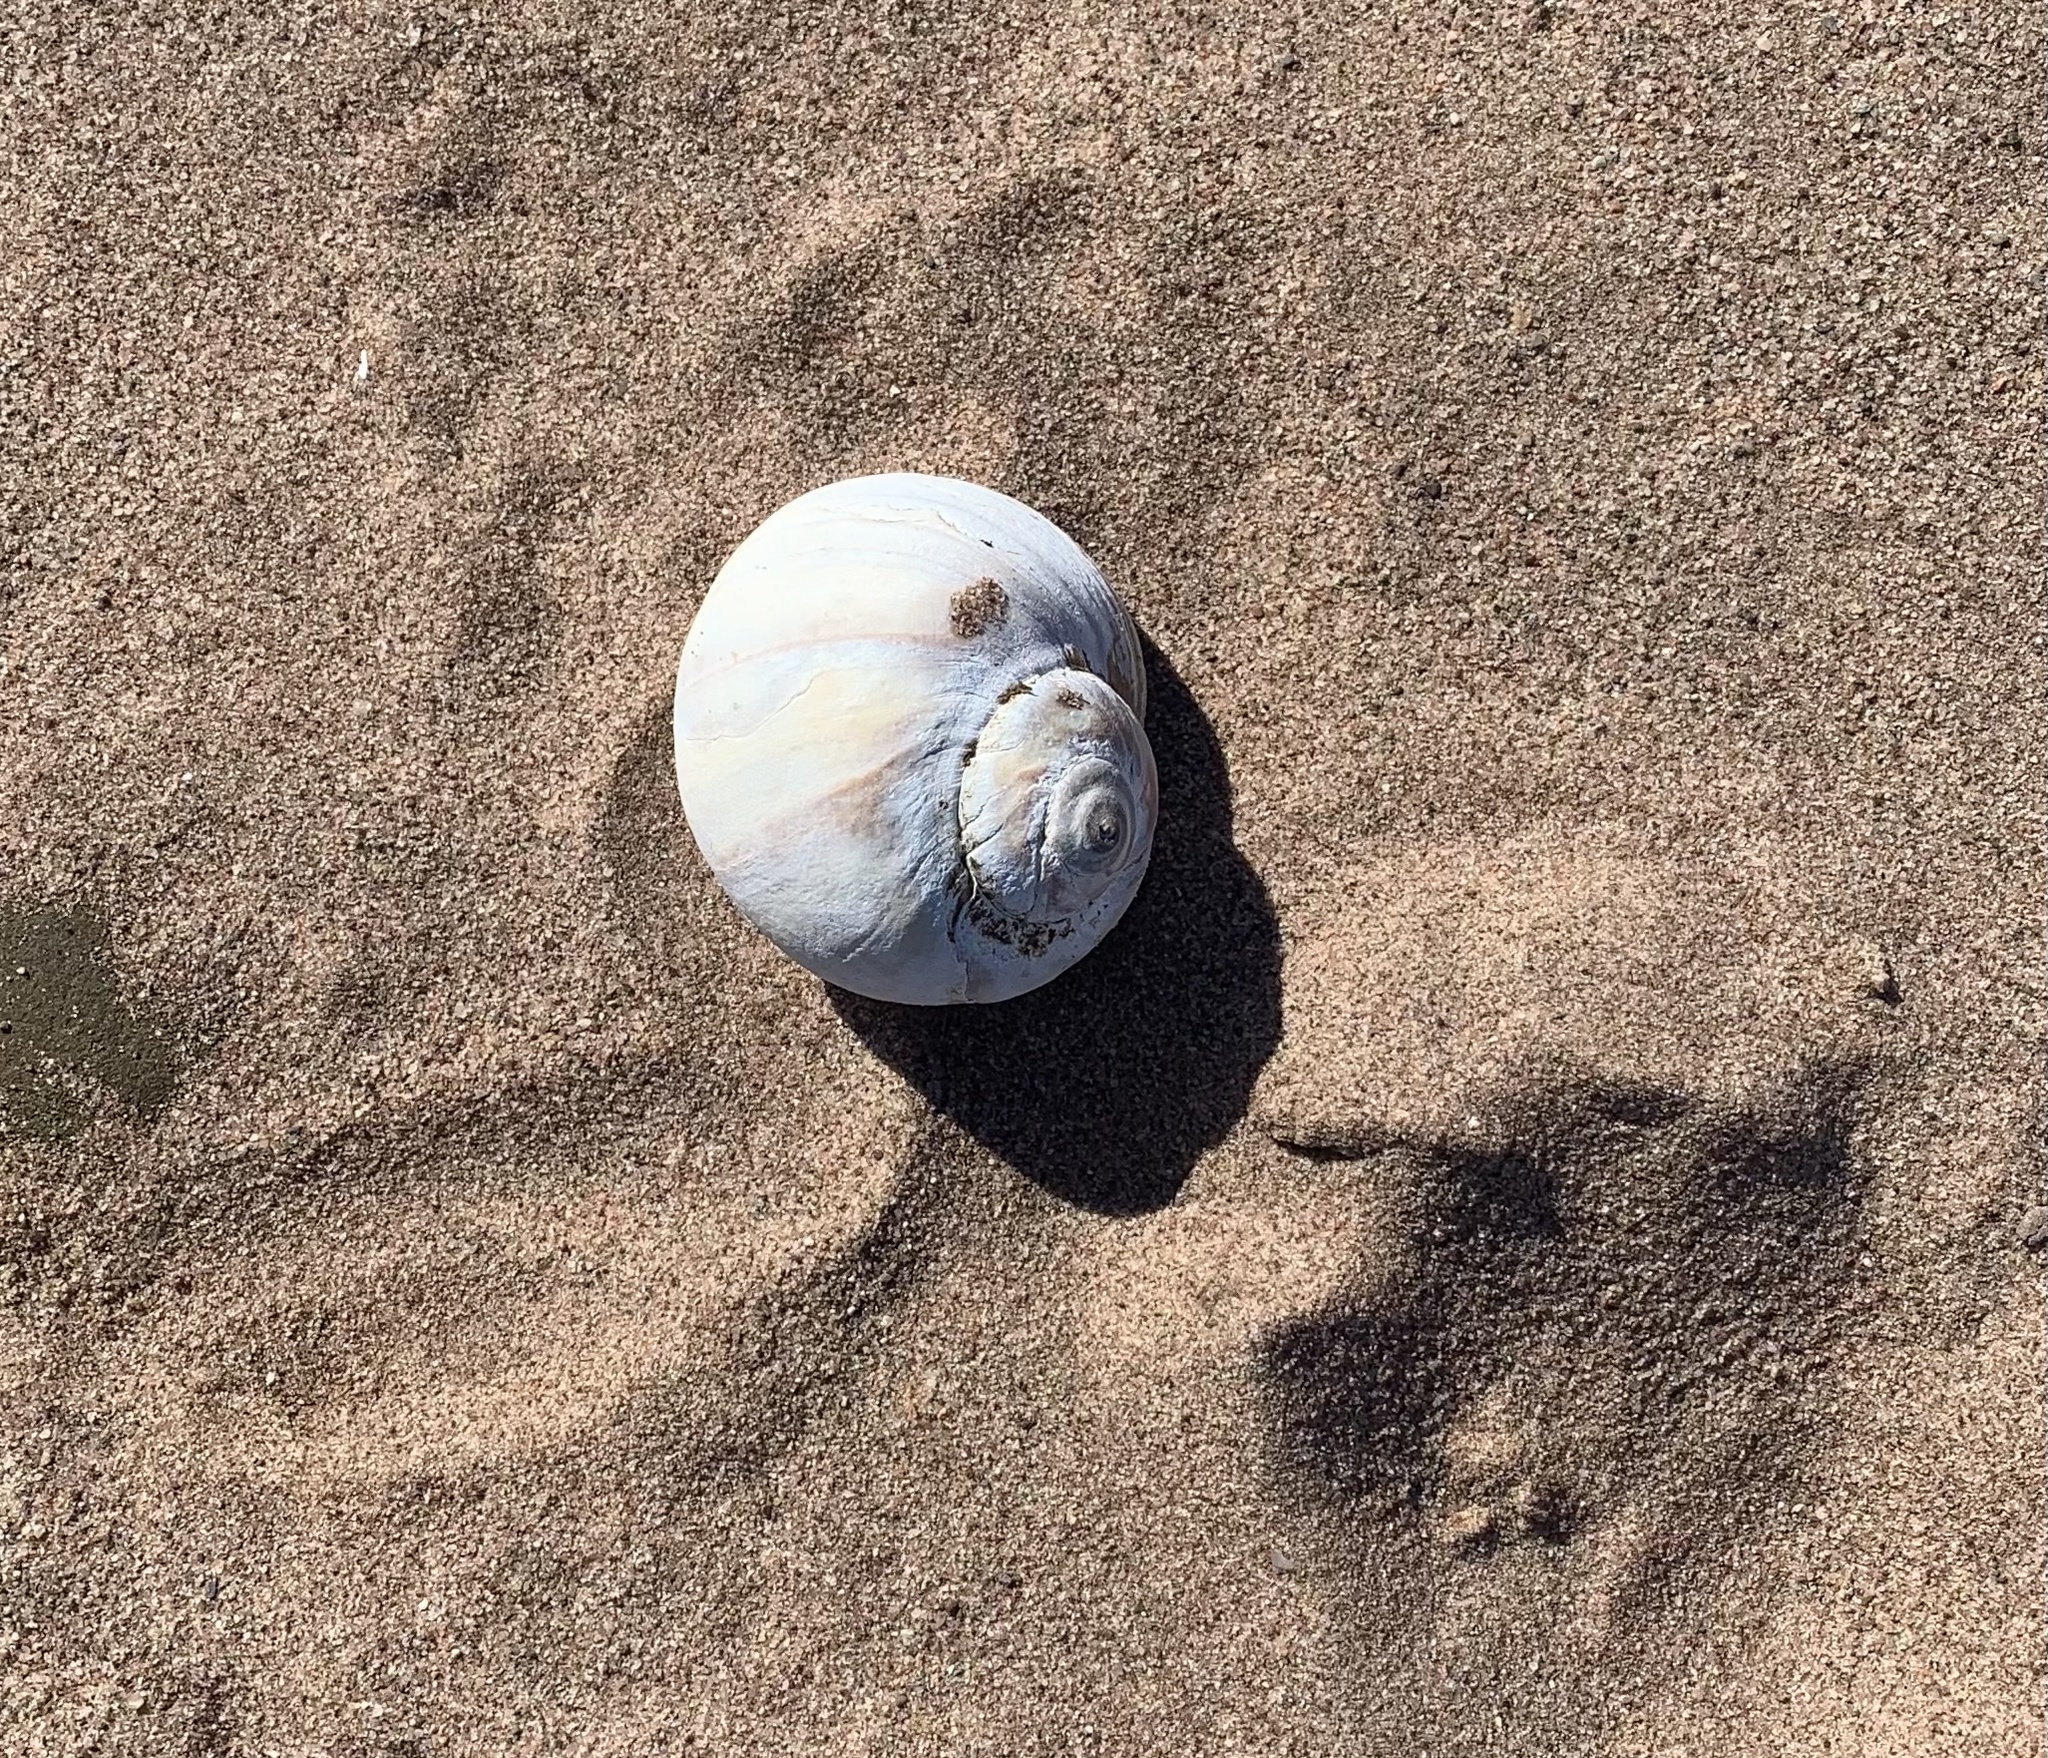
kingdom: Animalia
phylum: Mollusca
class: Gastropoda
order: Littorinimorpha
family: Naticidae
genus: Euspira
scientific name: Euspira heros
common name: Common northern moonsnail
